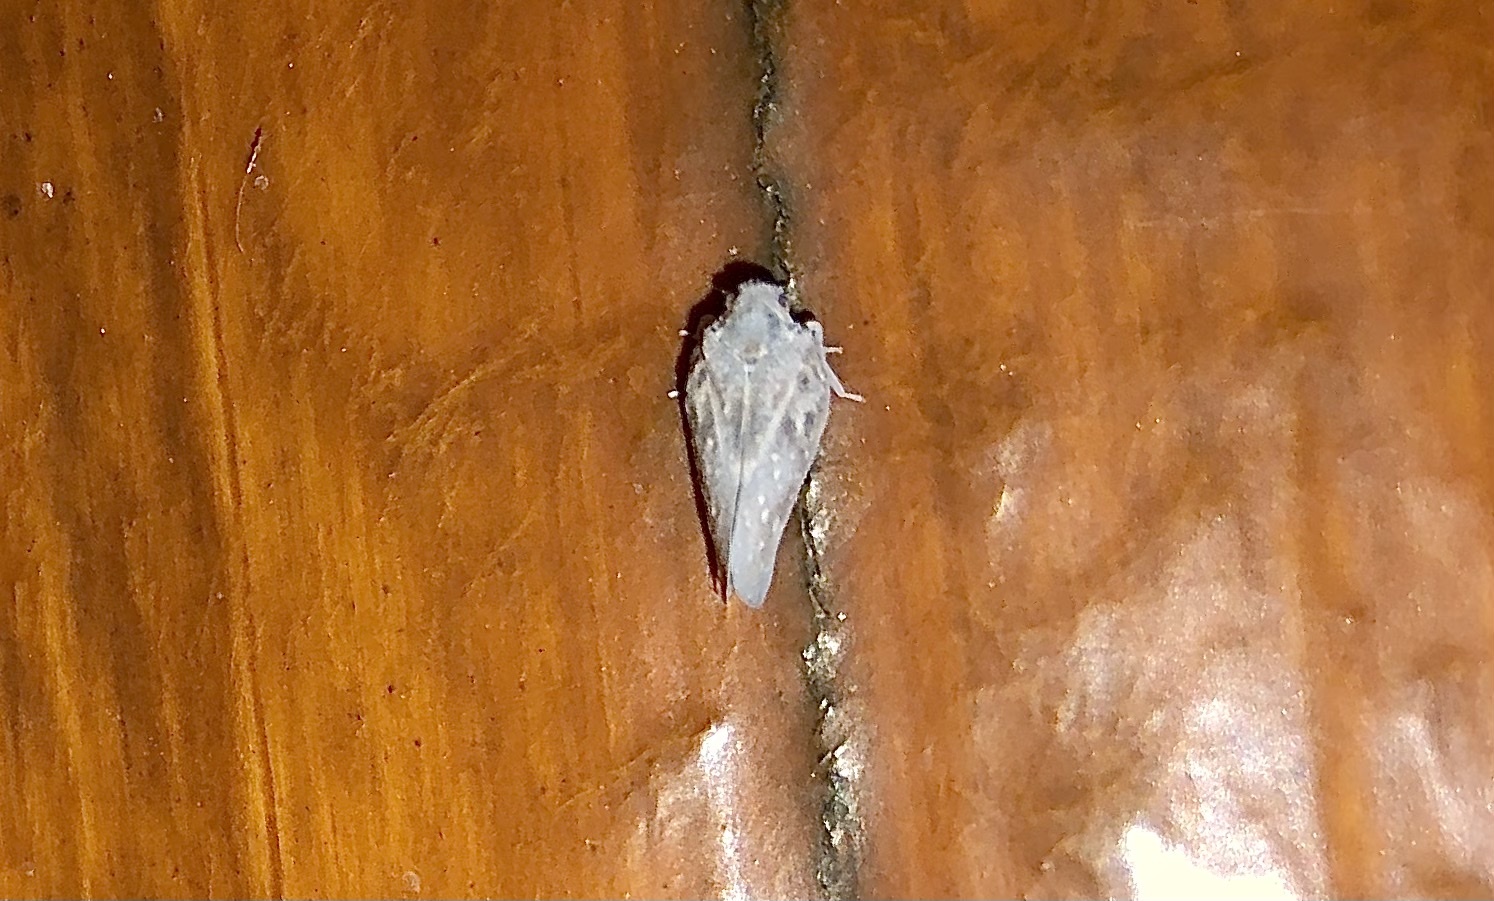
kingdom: Animalia
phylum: Arthropoda
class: Insecta
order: Hemiptera
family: Flatidae
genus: Metcalfa
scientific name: Metcalfa pruinosa
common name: Citrus flatid planthopper
